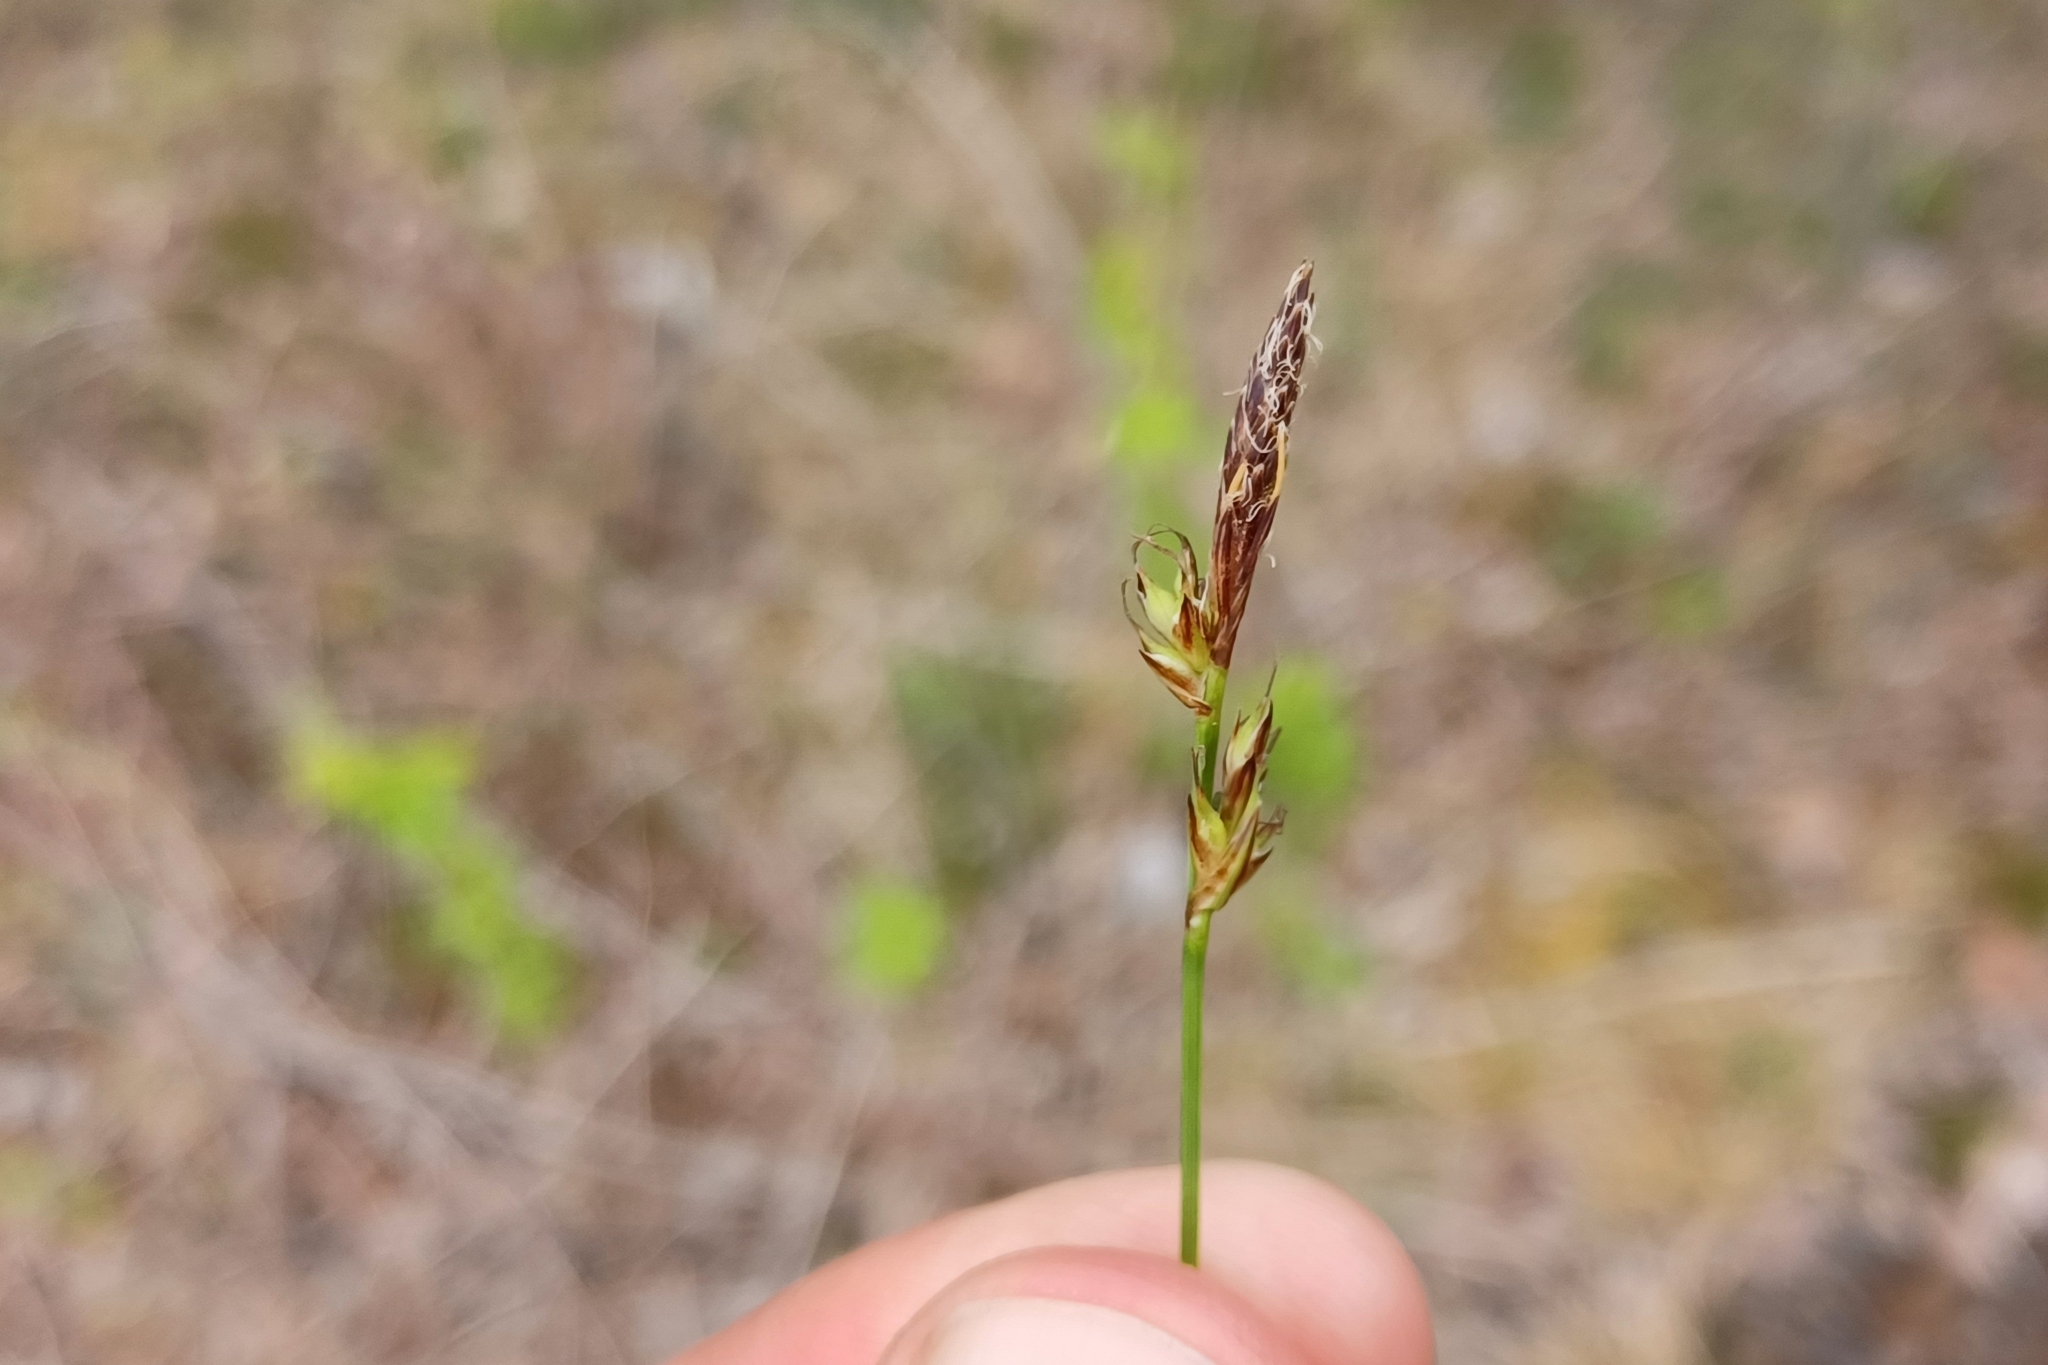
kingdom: Plantae
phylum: Tracheophyta
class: Liliopsida
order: Poales
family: Cyperaceae
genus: Carex
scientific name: Carex lucorum
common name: Blue ridge sedge
